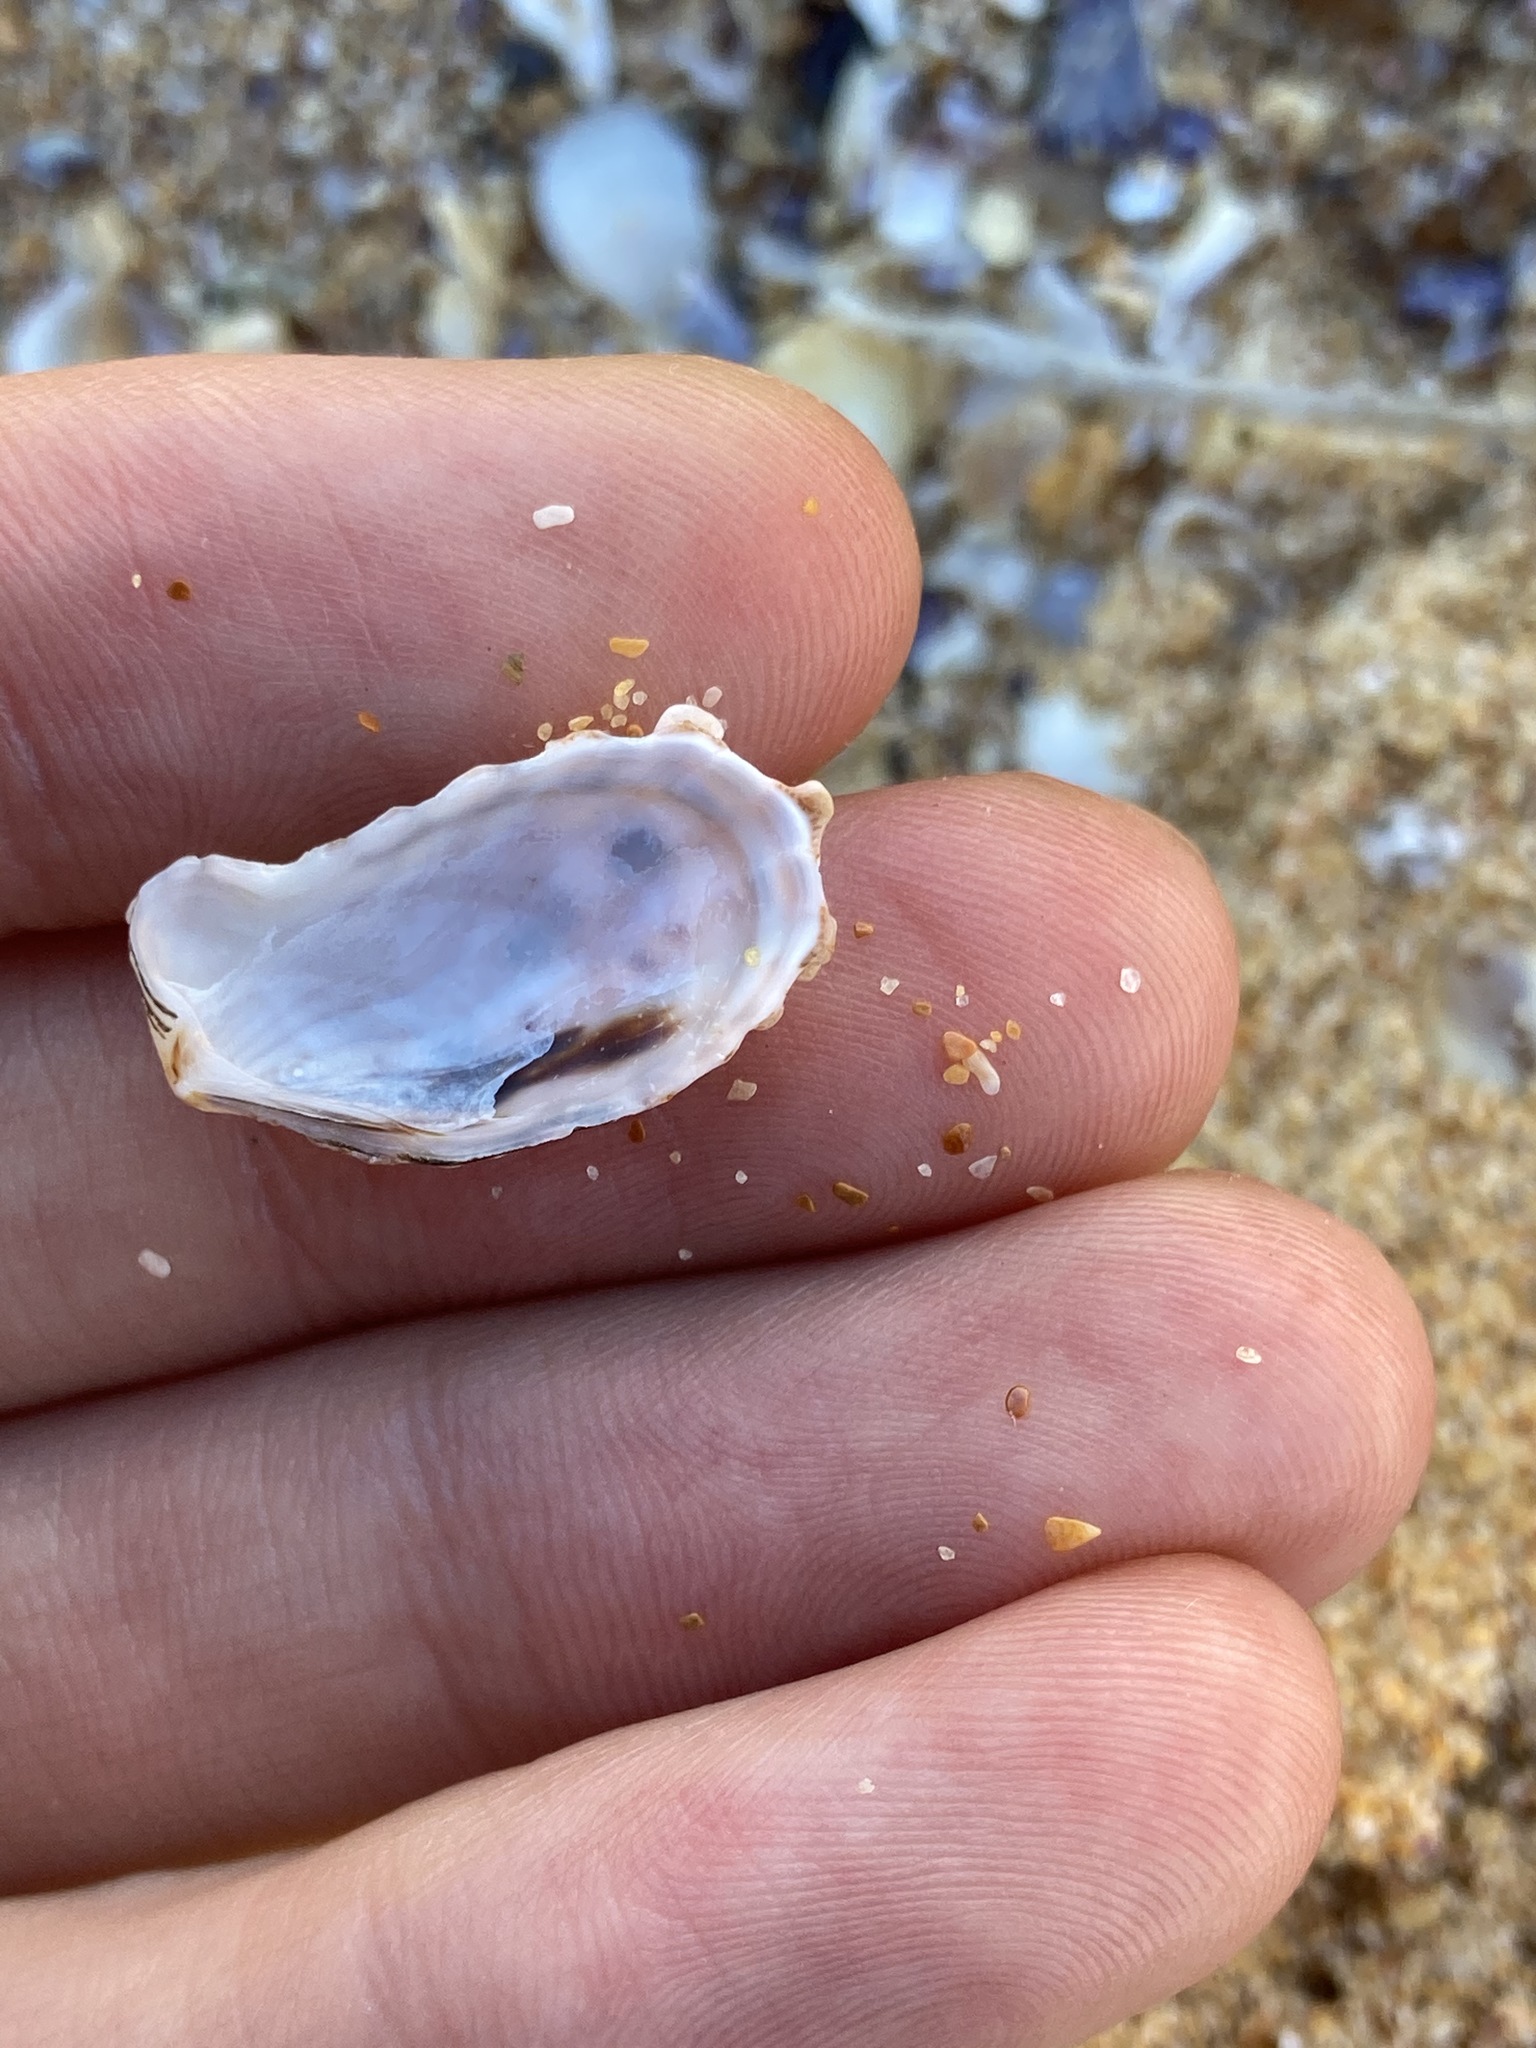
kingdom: Animalia
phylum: Mollusca
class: Bivalvia
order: Carditida
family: Carditidae
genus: Cardita
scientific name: Cardita aviculina
